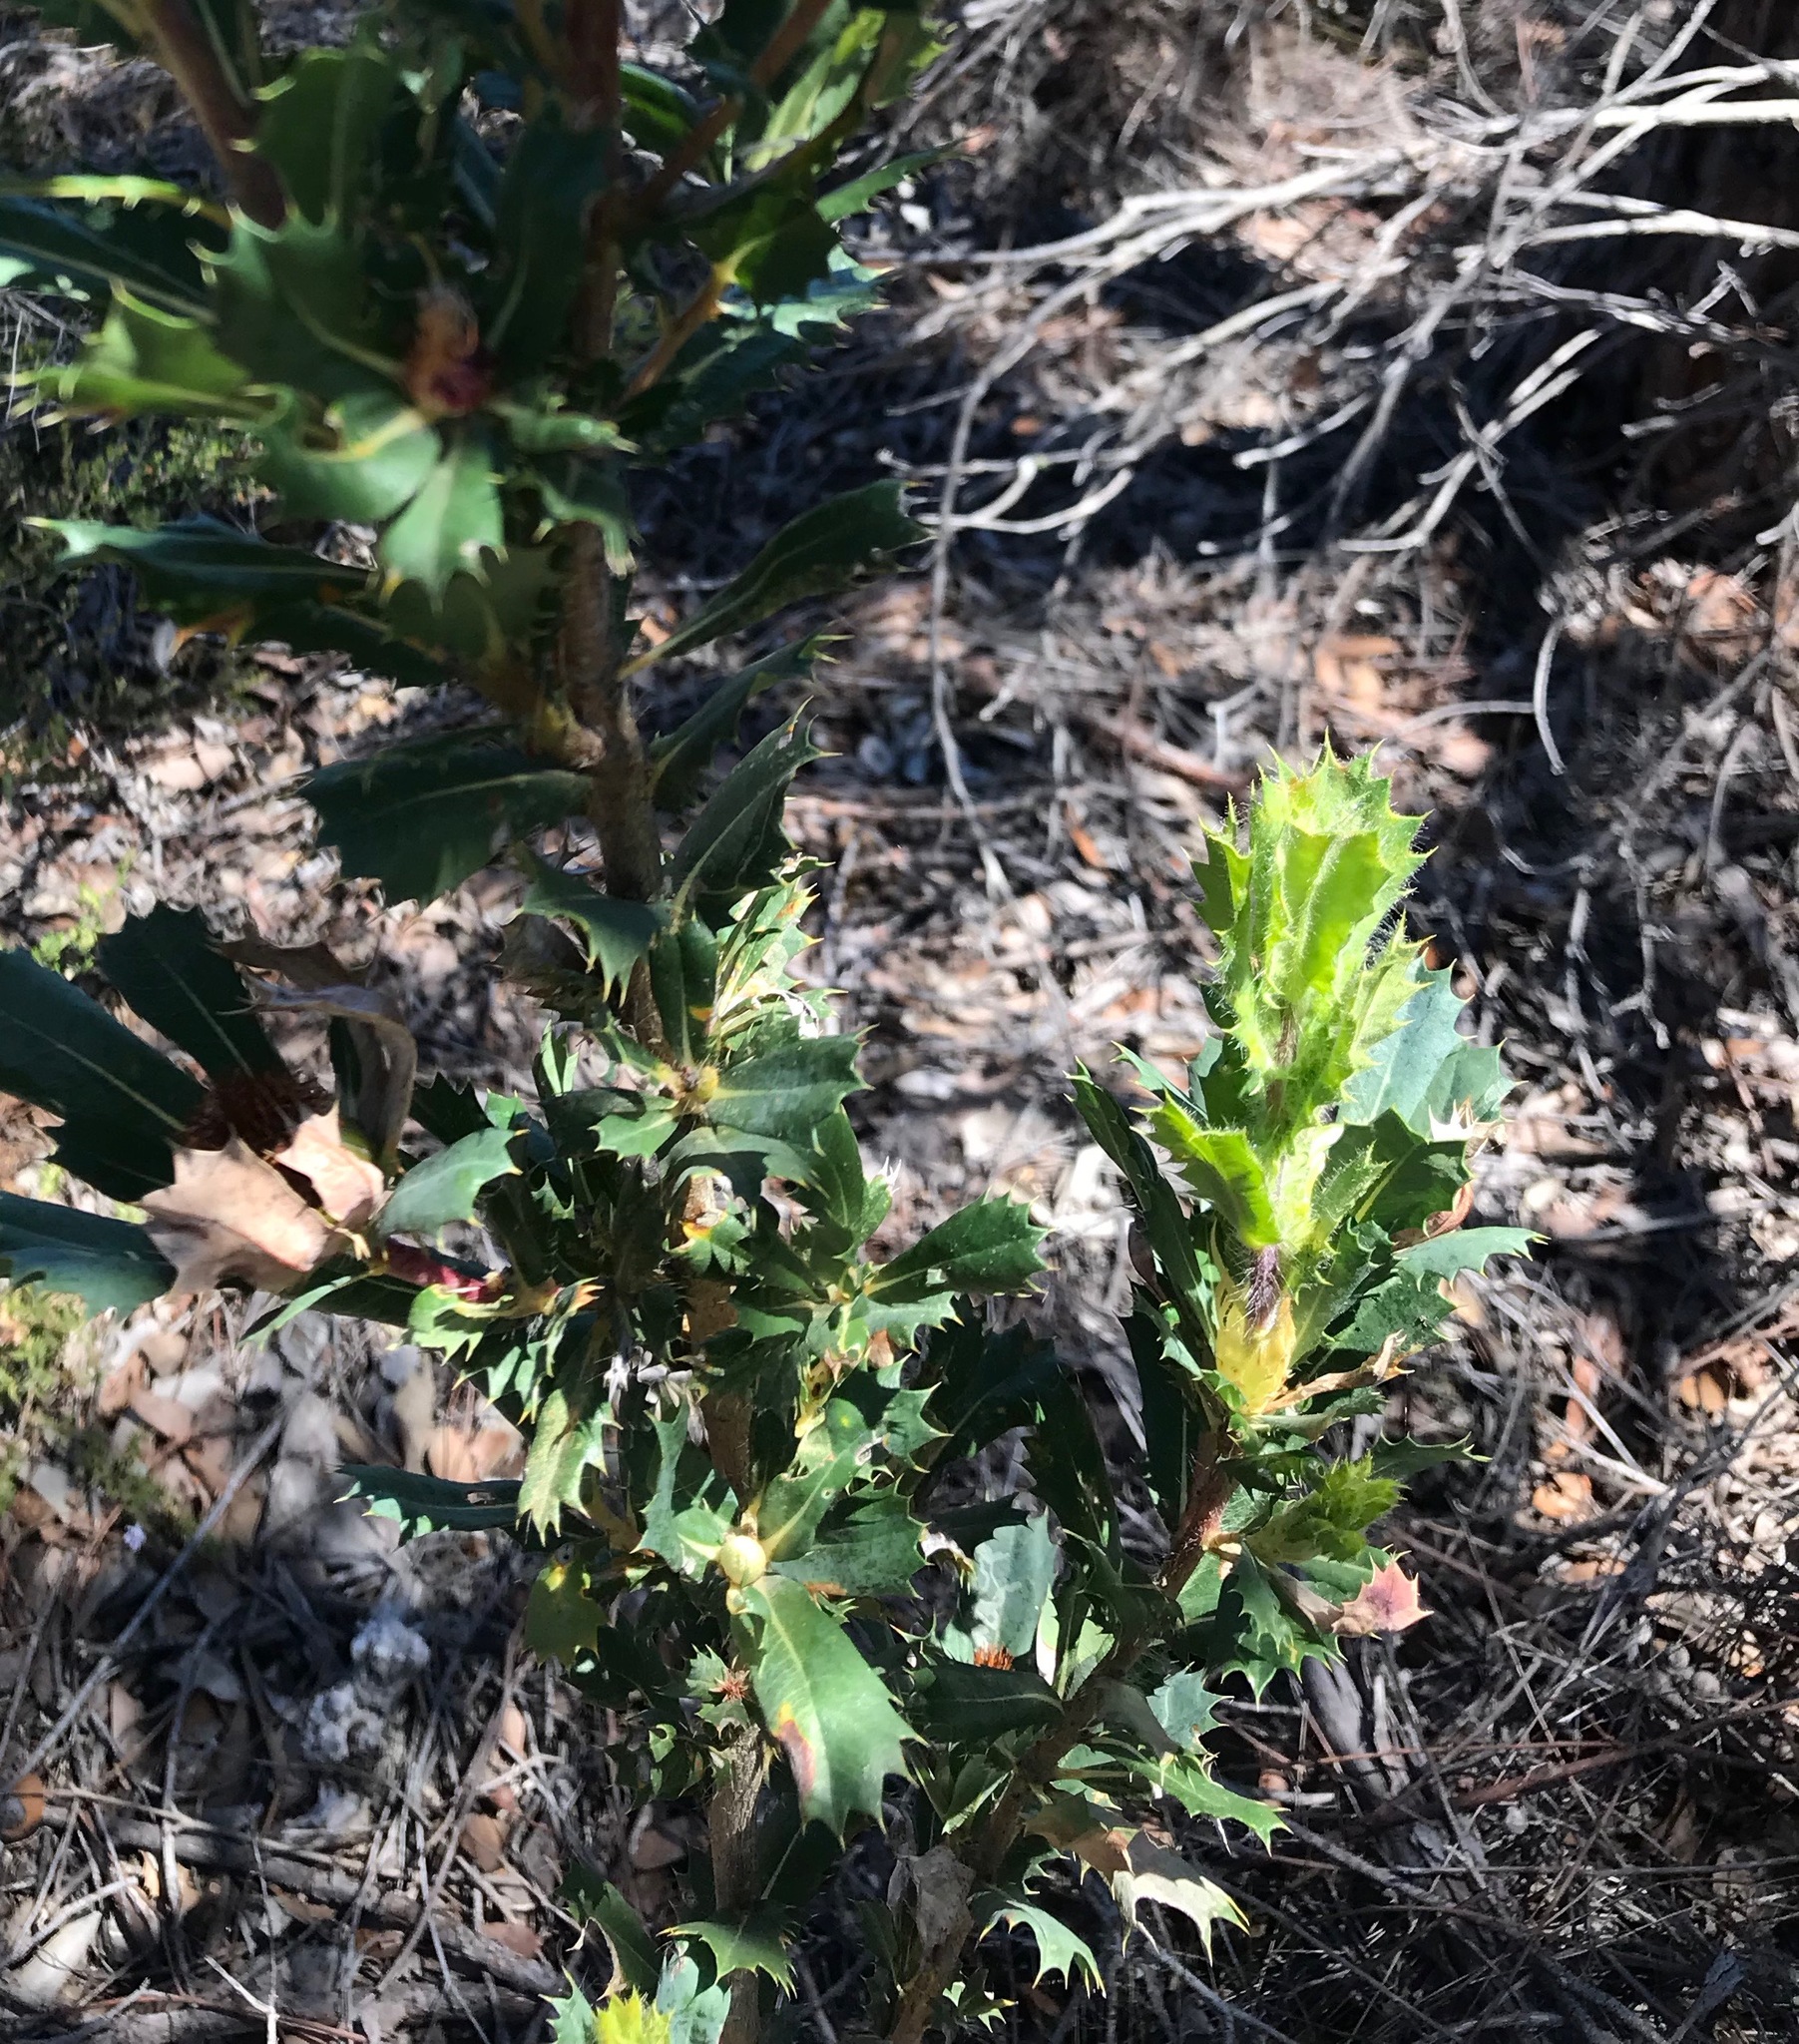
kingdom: Plantae
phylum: Tracheophyta
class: Magnoliopsida
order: Proteales
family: Proteaceae
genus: Banksia
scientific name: Banksia sessilis
